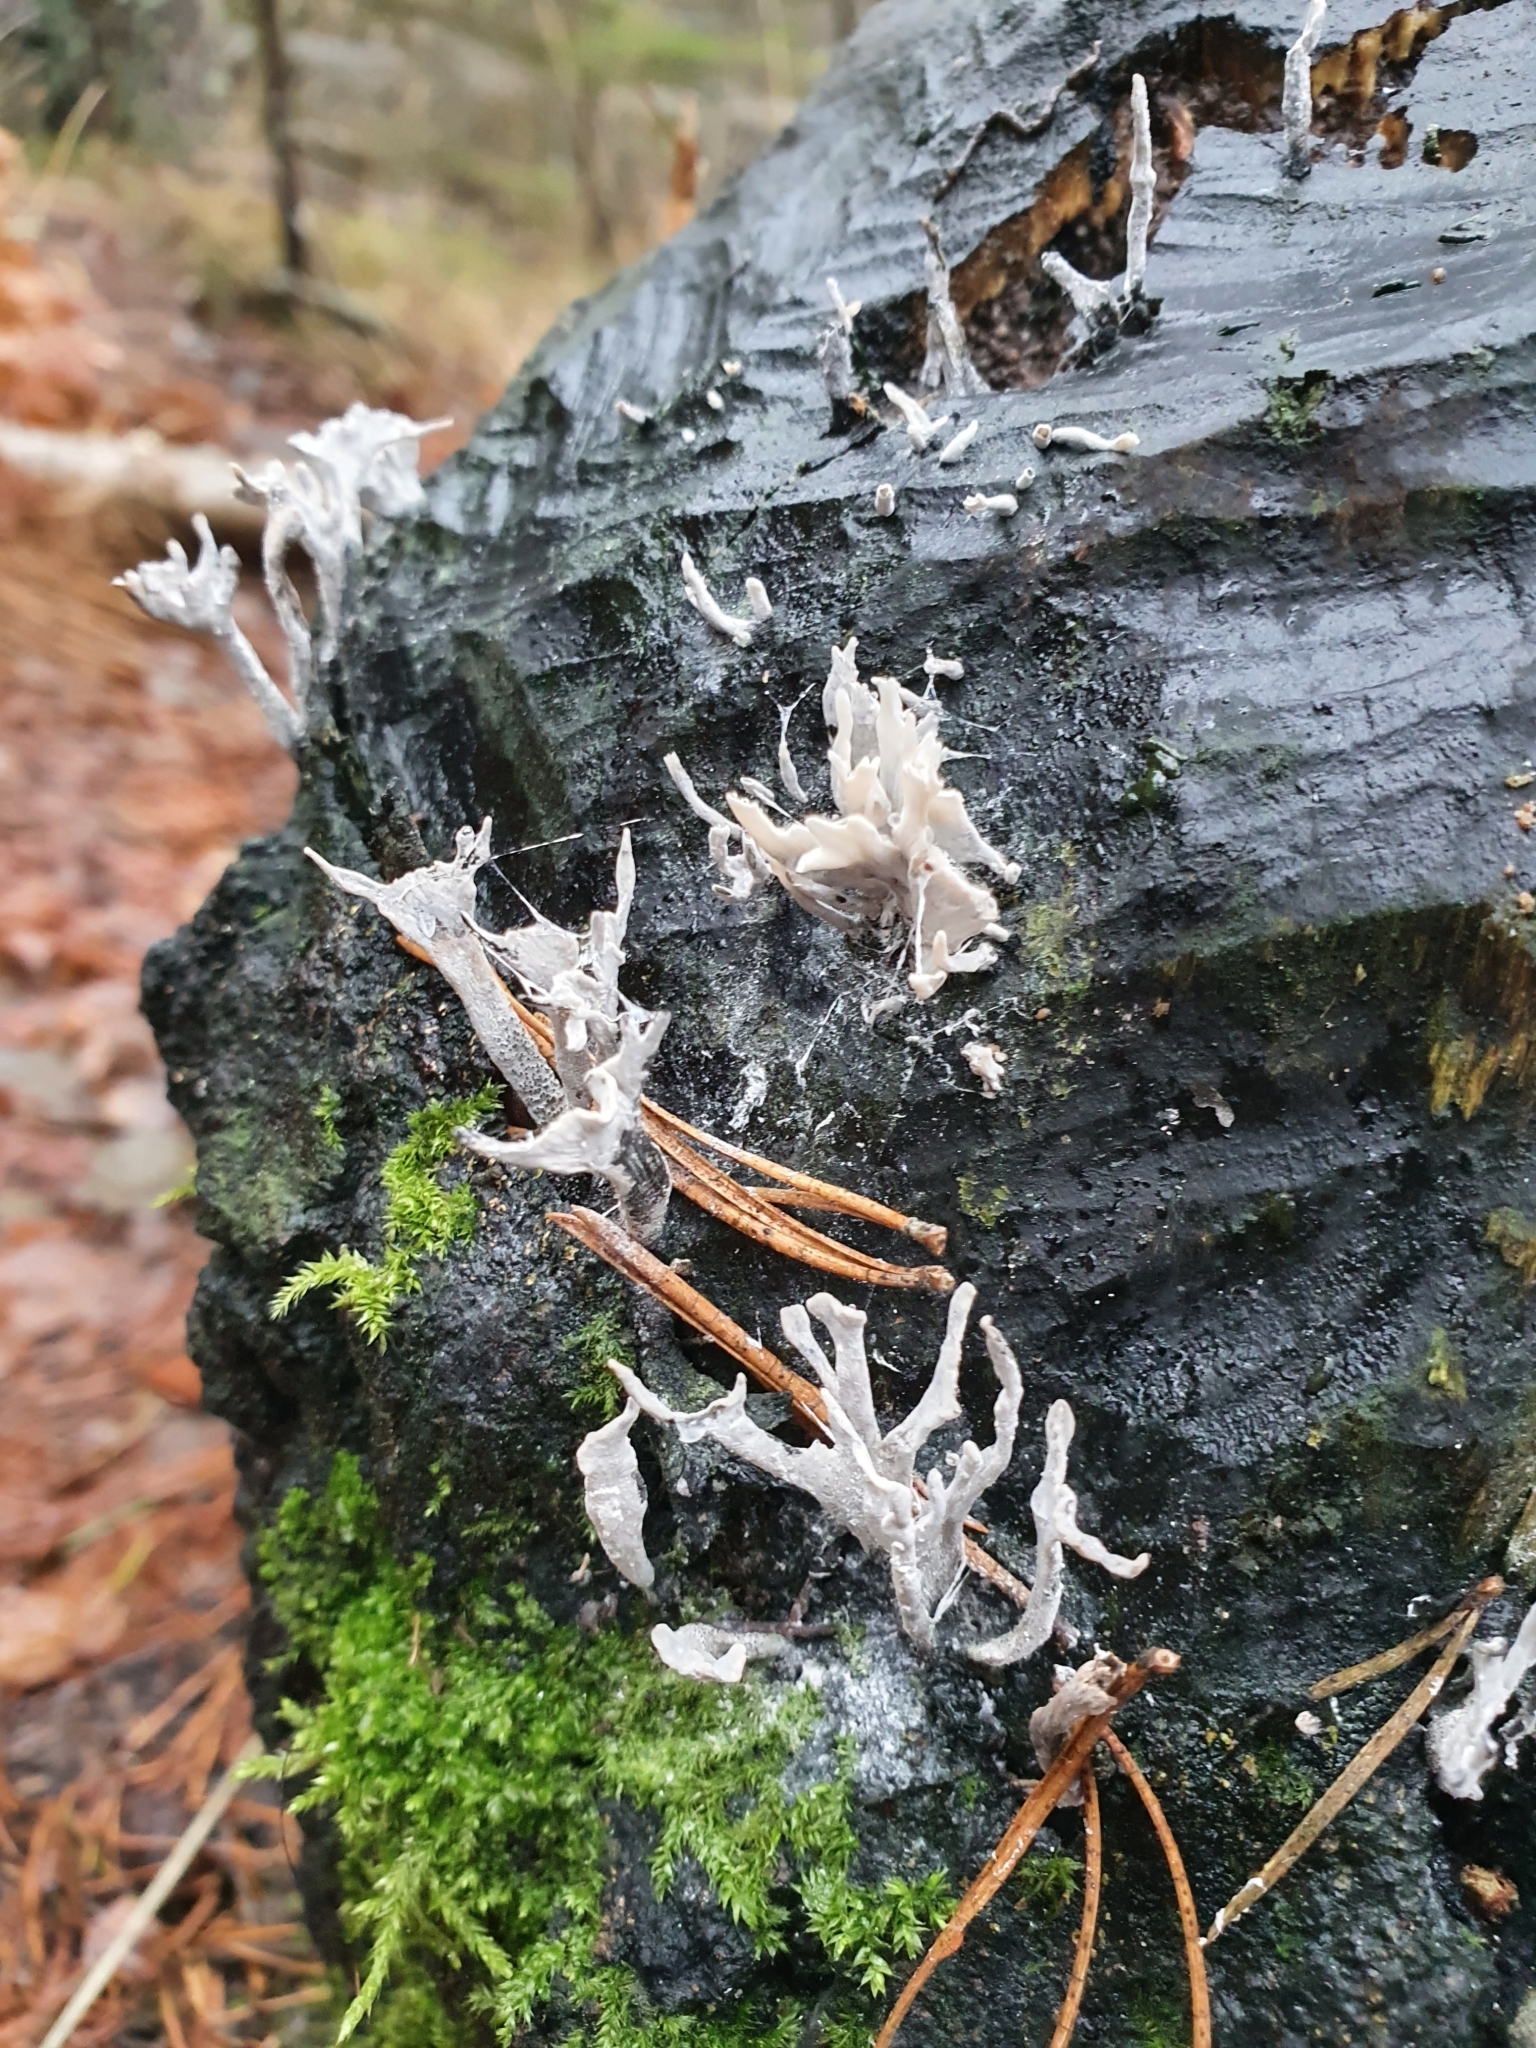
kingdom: Fungi
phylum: Ascomycota
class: Sordariomycetes
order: Xylariales
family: Xylariaceae
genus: Xylaria
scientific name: Xylaria hypoxylon
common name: Candle-snuff fungus
